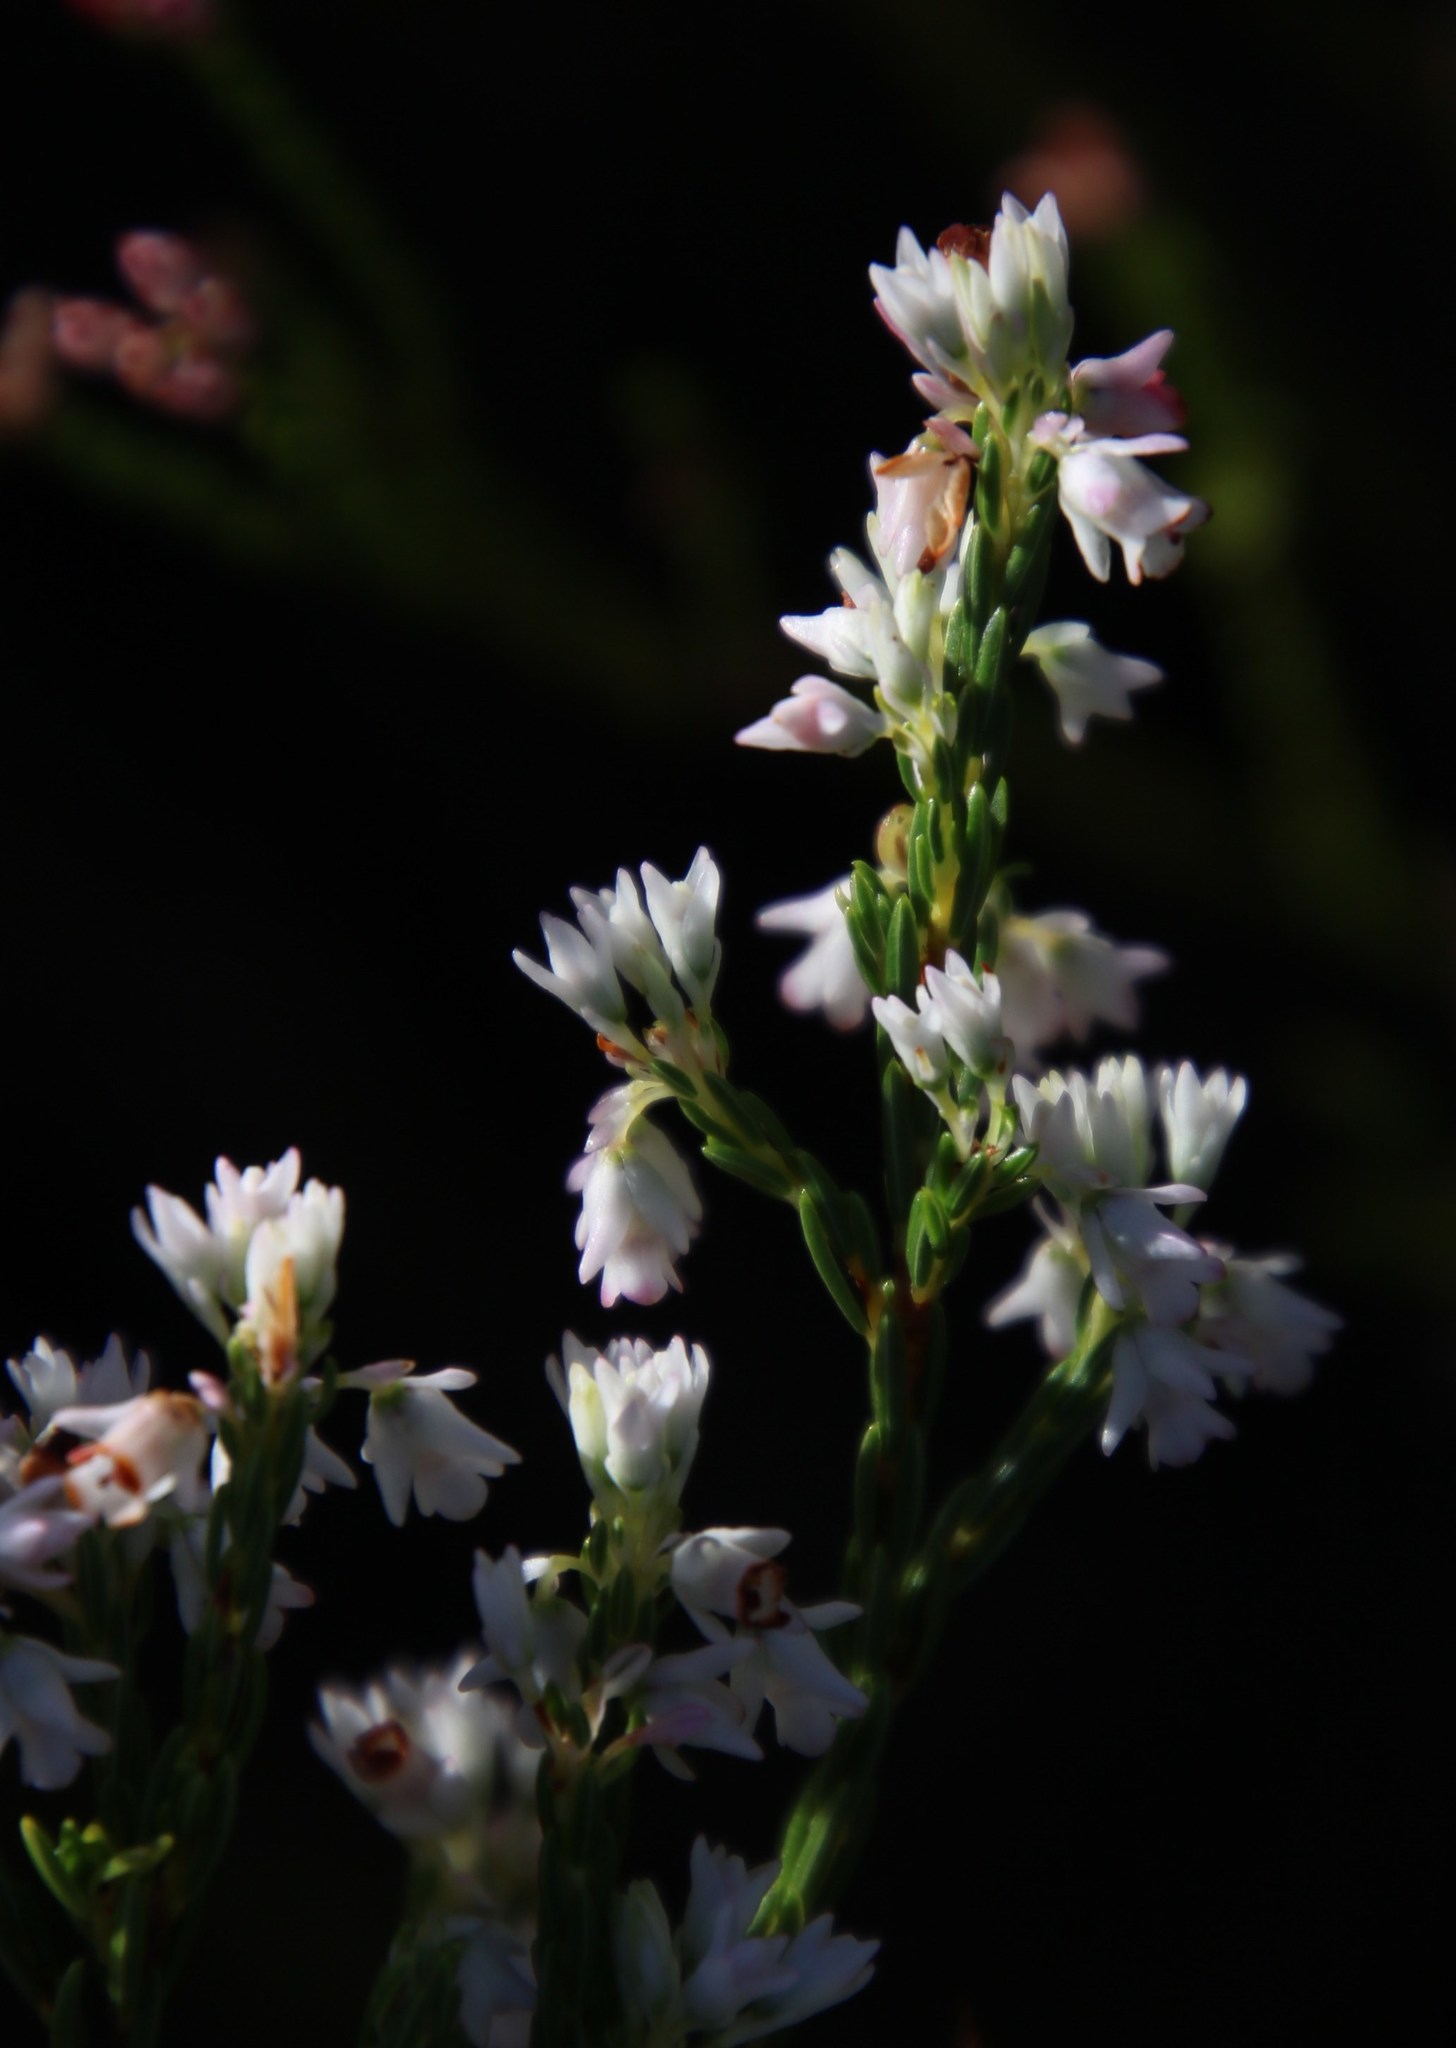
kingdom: Plantae
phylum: Tracheophyta
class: Magnoliopsida
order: Ericales
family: Ericaceae
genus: Erica
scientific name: Erica corifolia
